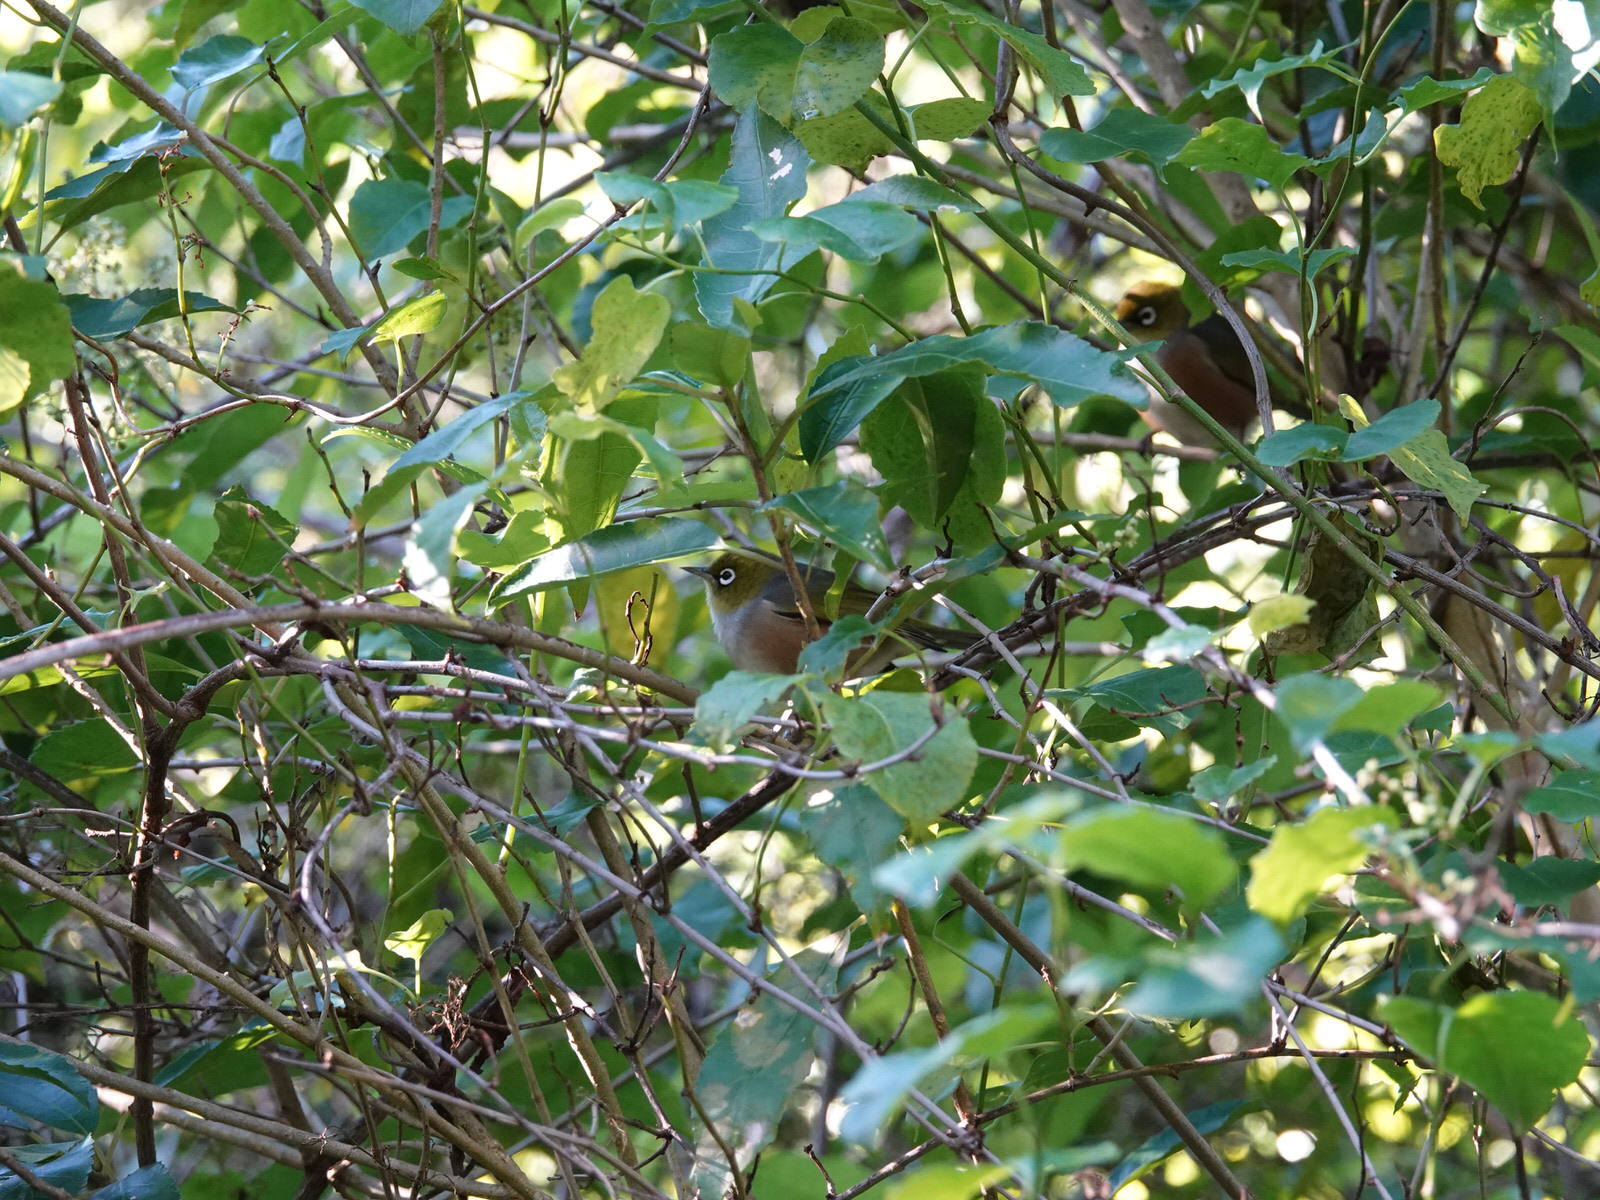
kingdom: Animalia
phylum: Chordata
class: Aves
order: Passeriformes
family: Zosteropidae
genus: Zosterops
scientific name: Zosterops lateralis
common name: Silvereye
